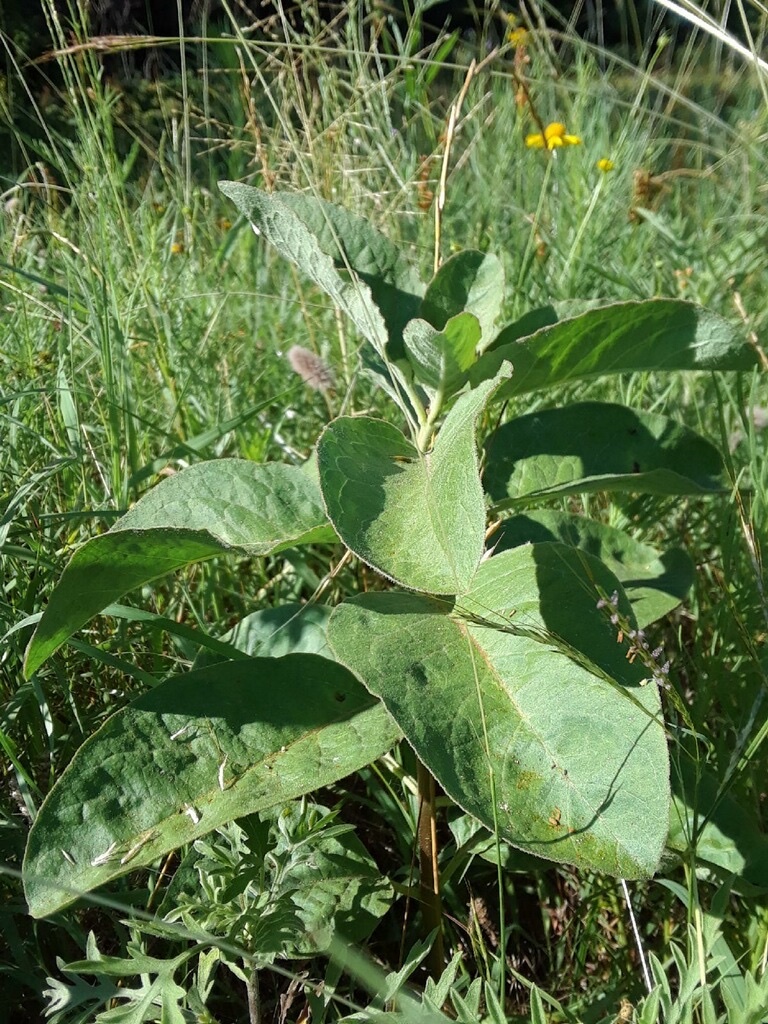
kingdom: Plantae
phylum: Tracheophyta
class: Magnoliopsida
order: Gentianales
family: Apocynaceae
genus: Asclepias
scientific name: Asclepias oenotheroides
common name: Zizotes milkweed
